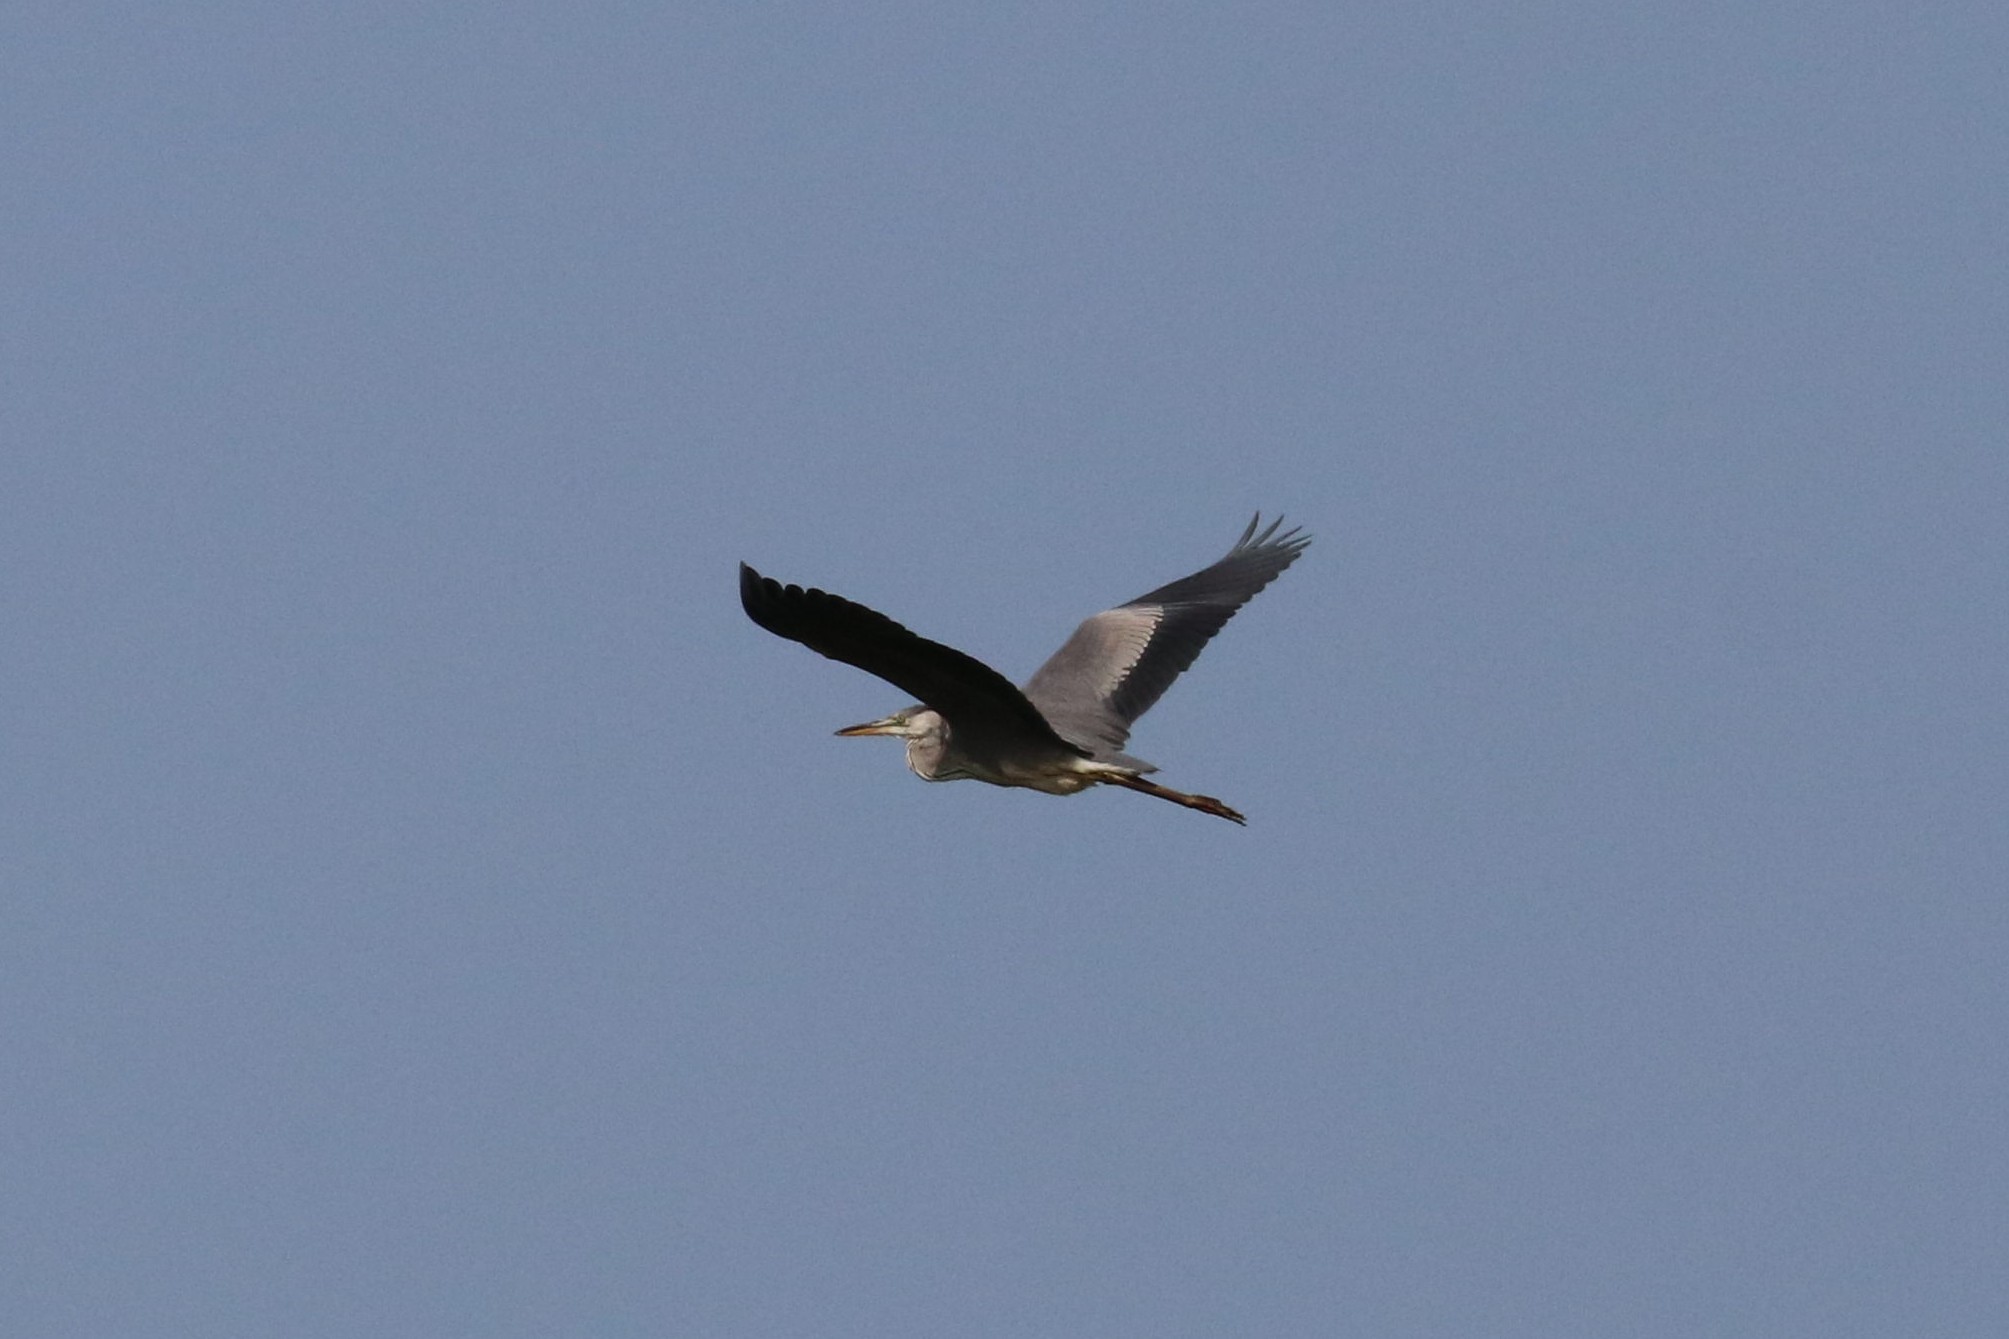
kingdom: Animalia
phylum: Chordata
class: Aves
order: Pelecaniformes
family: Ardeidae
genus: Ardea
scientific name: Ardea cinerea
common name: Grey heron
